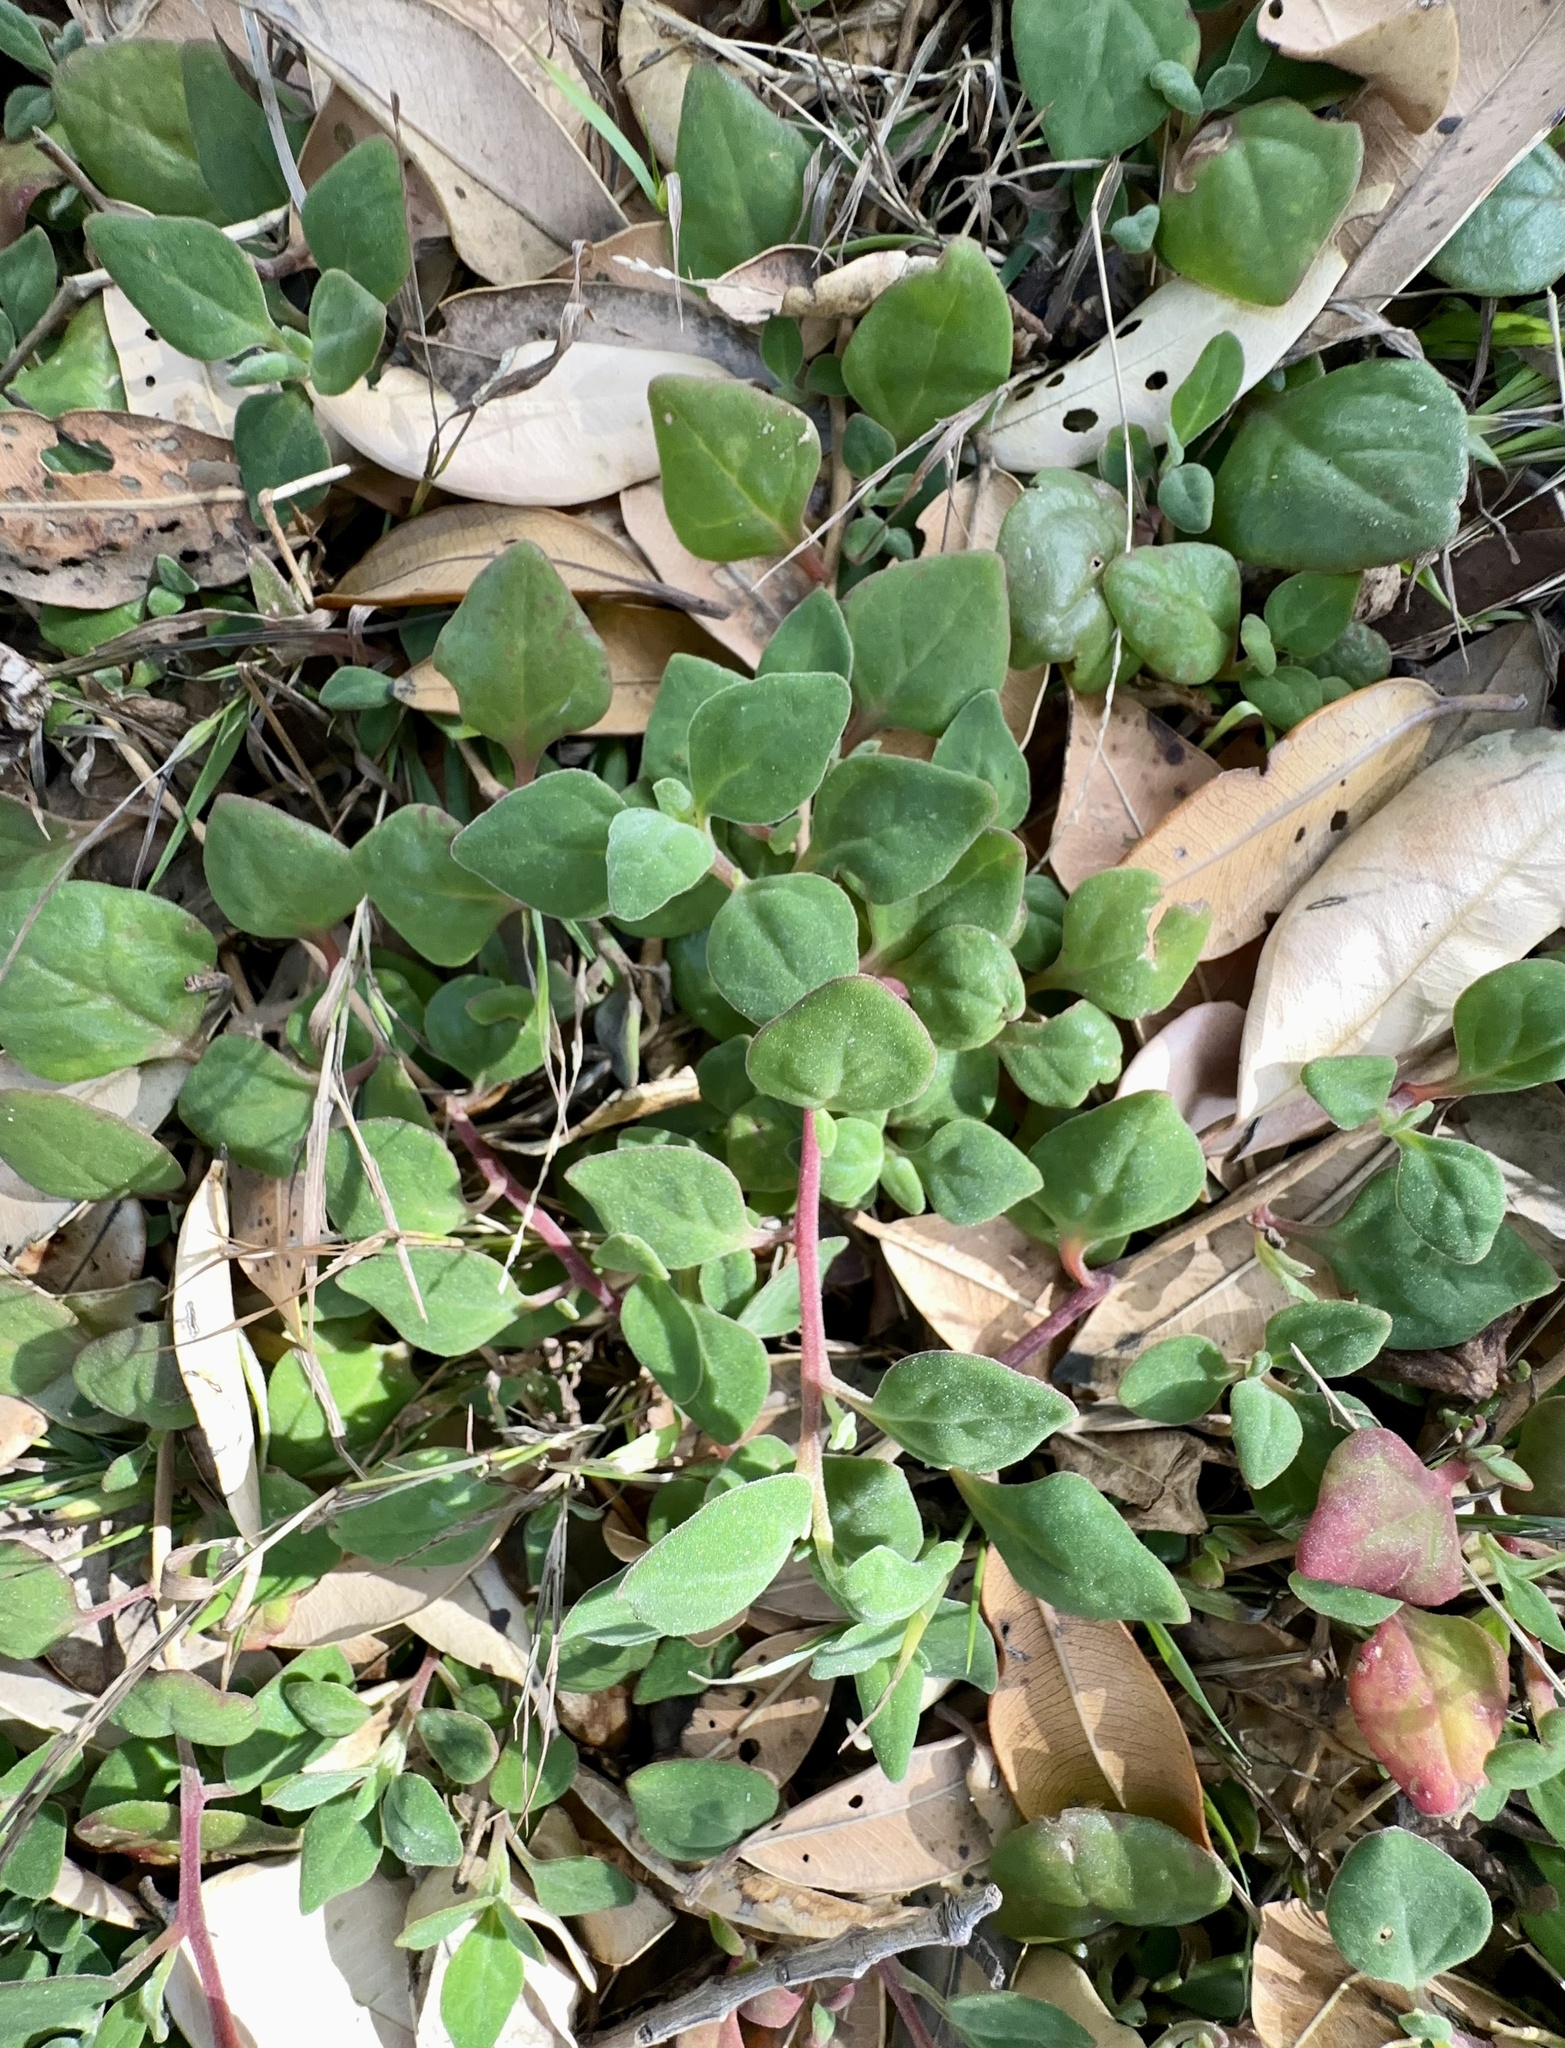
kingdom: Plantae
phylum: Tracheophyta
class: Magnoliopsida
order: Caryophyllales
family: Aizoaceae
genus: Tetragonia
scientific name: Tetragonia implexicoma
